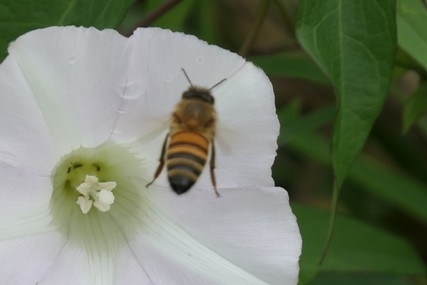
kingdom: Animalia
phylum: Arthropoda
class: Insecta
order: Hymenoptera
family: Apidae
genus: Apis
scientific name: Apis mellifera
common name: Honey bee
